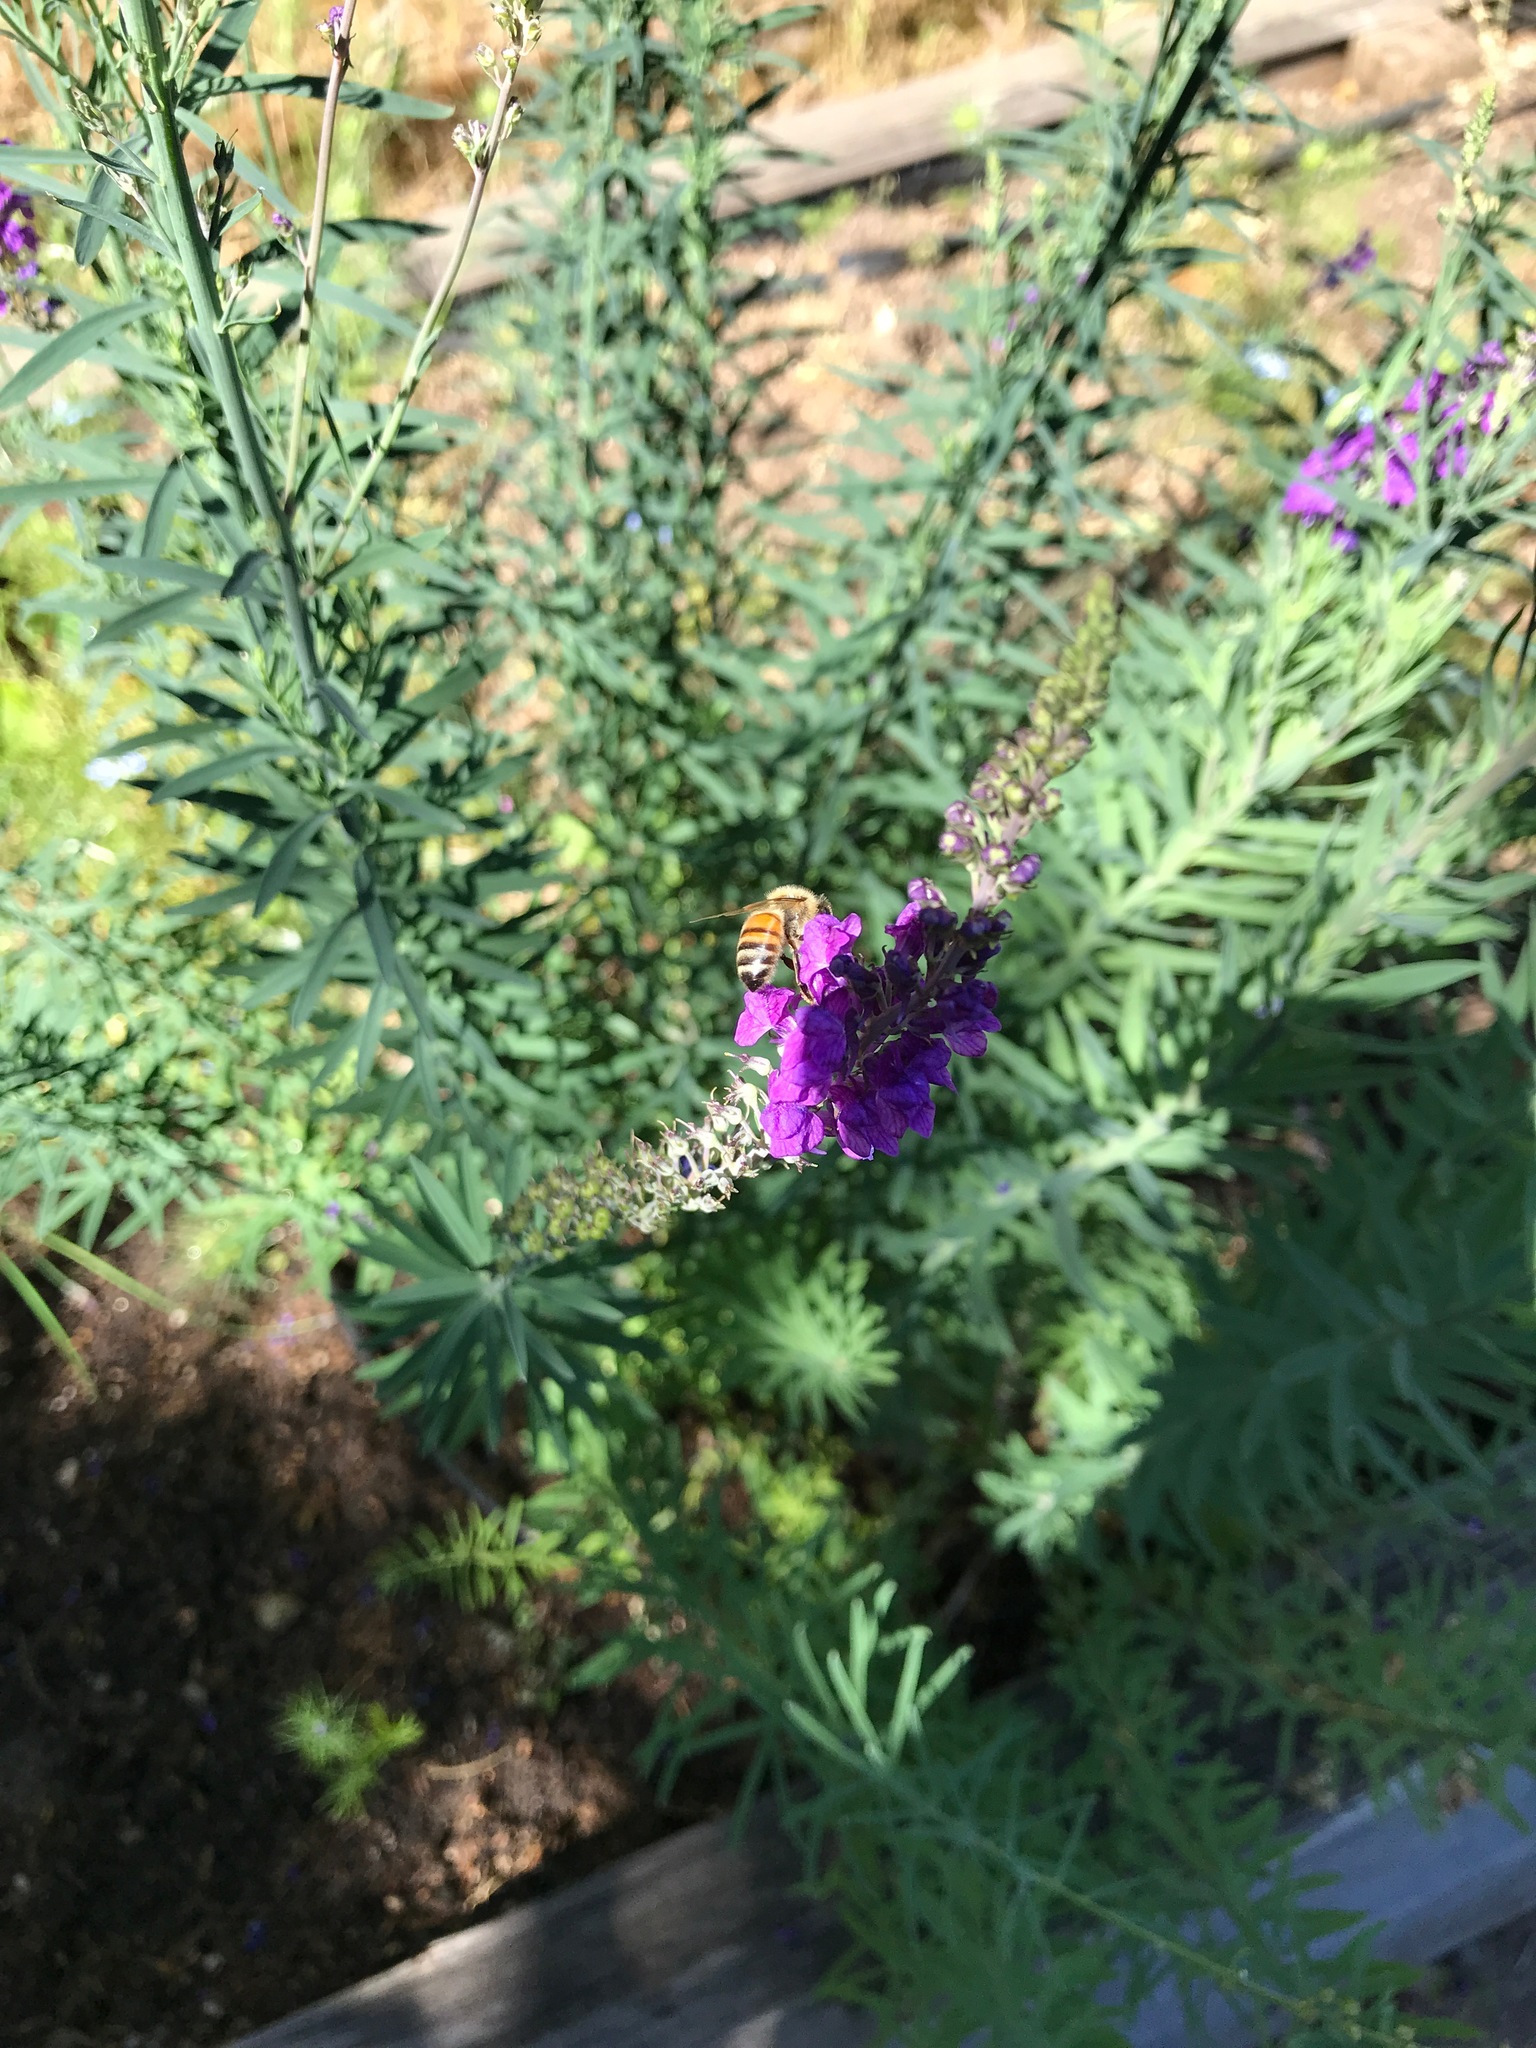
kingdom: Animalia
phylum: Arthropoda
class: Insecta
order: Hymenoptera
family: Apidae
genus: Apis
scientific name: Apis mellifera
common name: Honey bee
